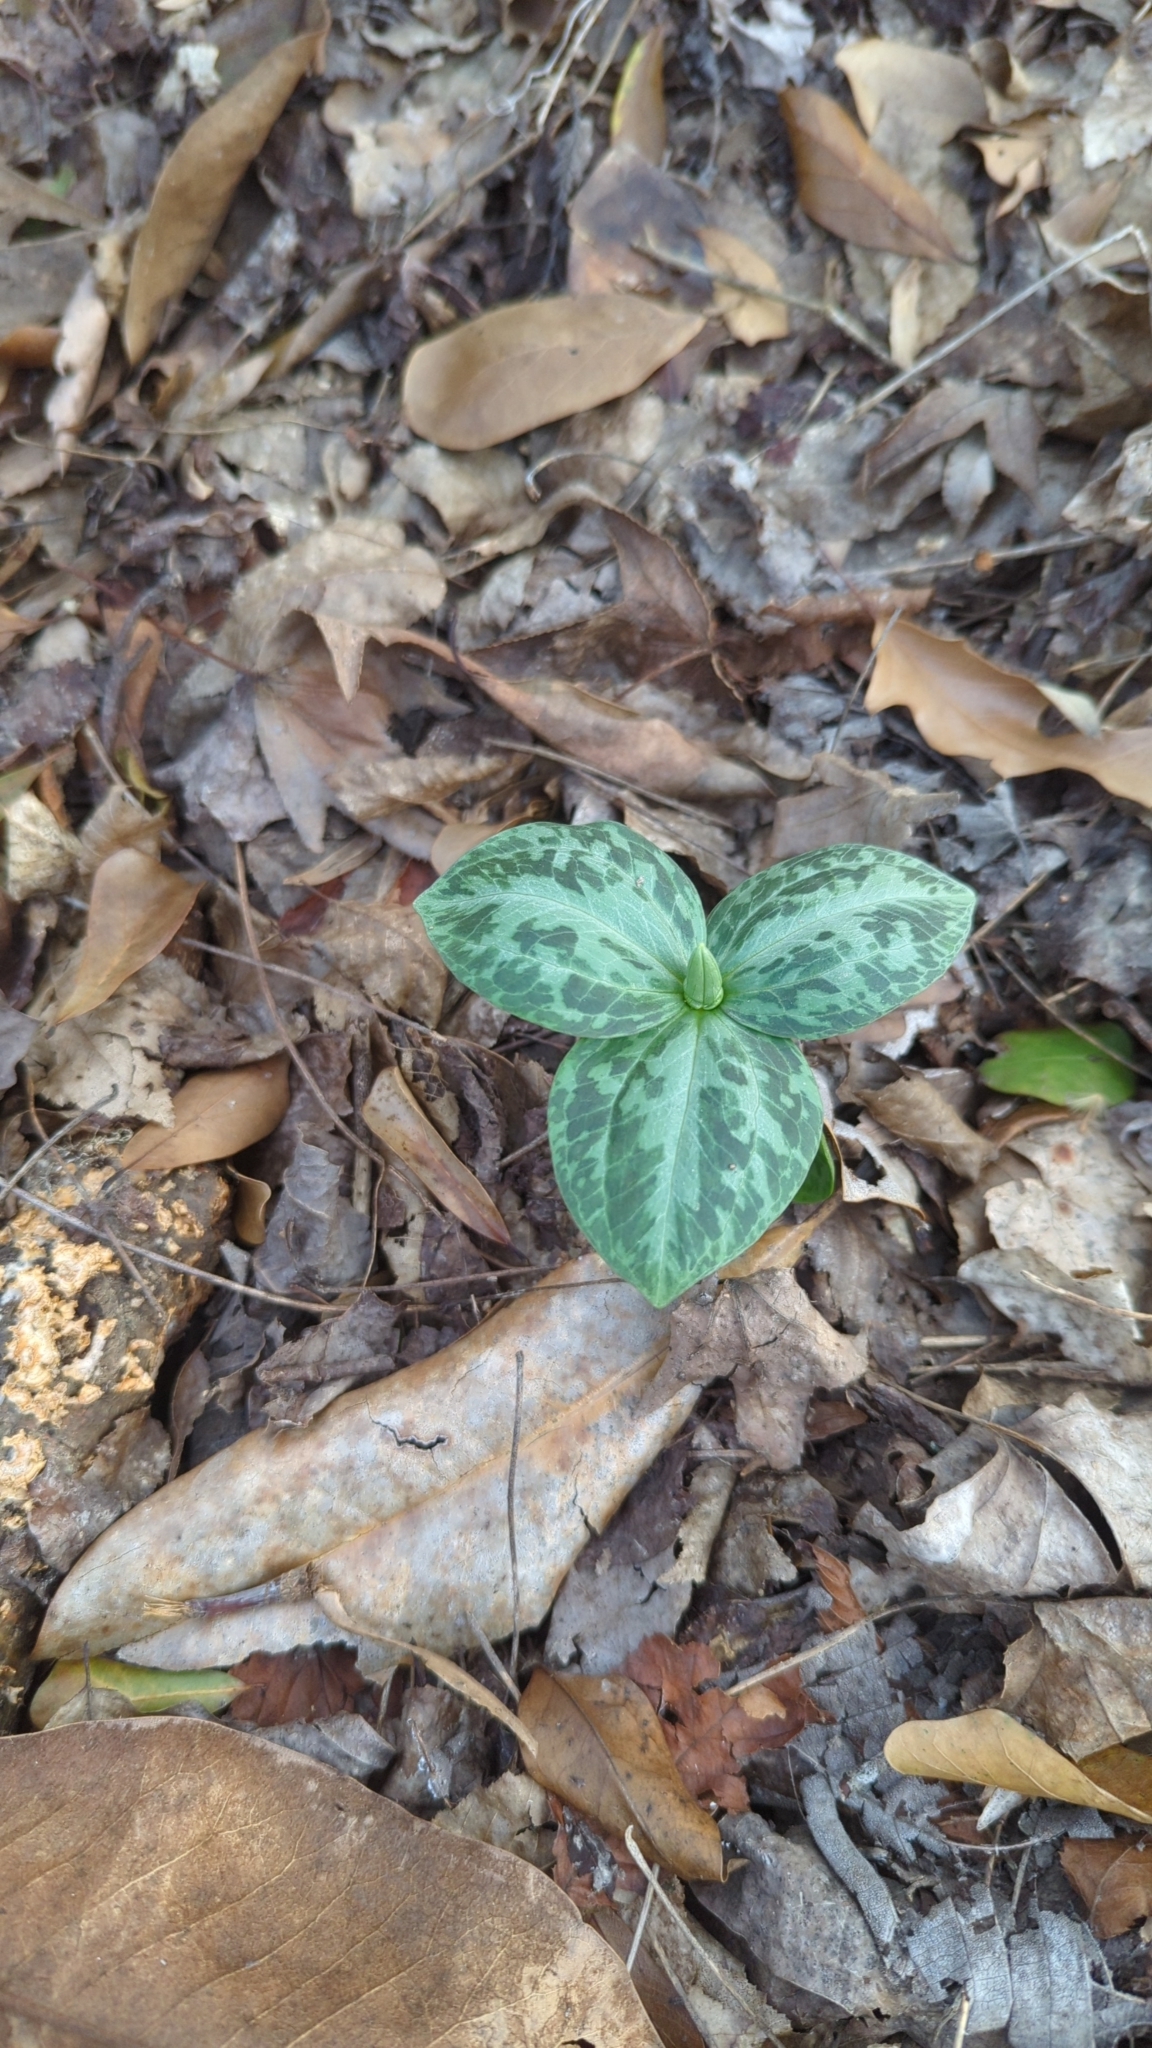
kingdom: Plantae
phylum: Tracheophyta
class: Liliopsida
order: Liliales
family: Melanthiaceae
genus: Trillium
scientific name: Trillium foetidissimum
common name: Mississippi river trillium
